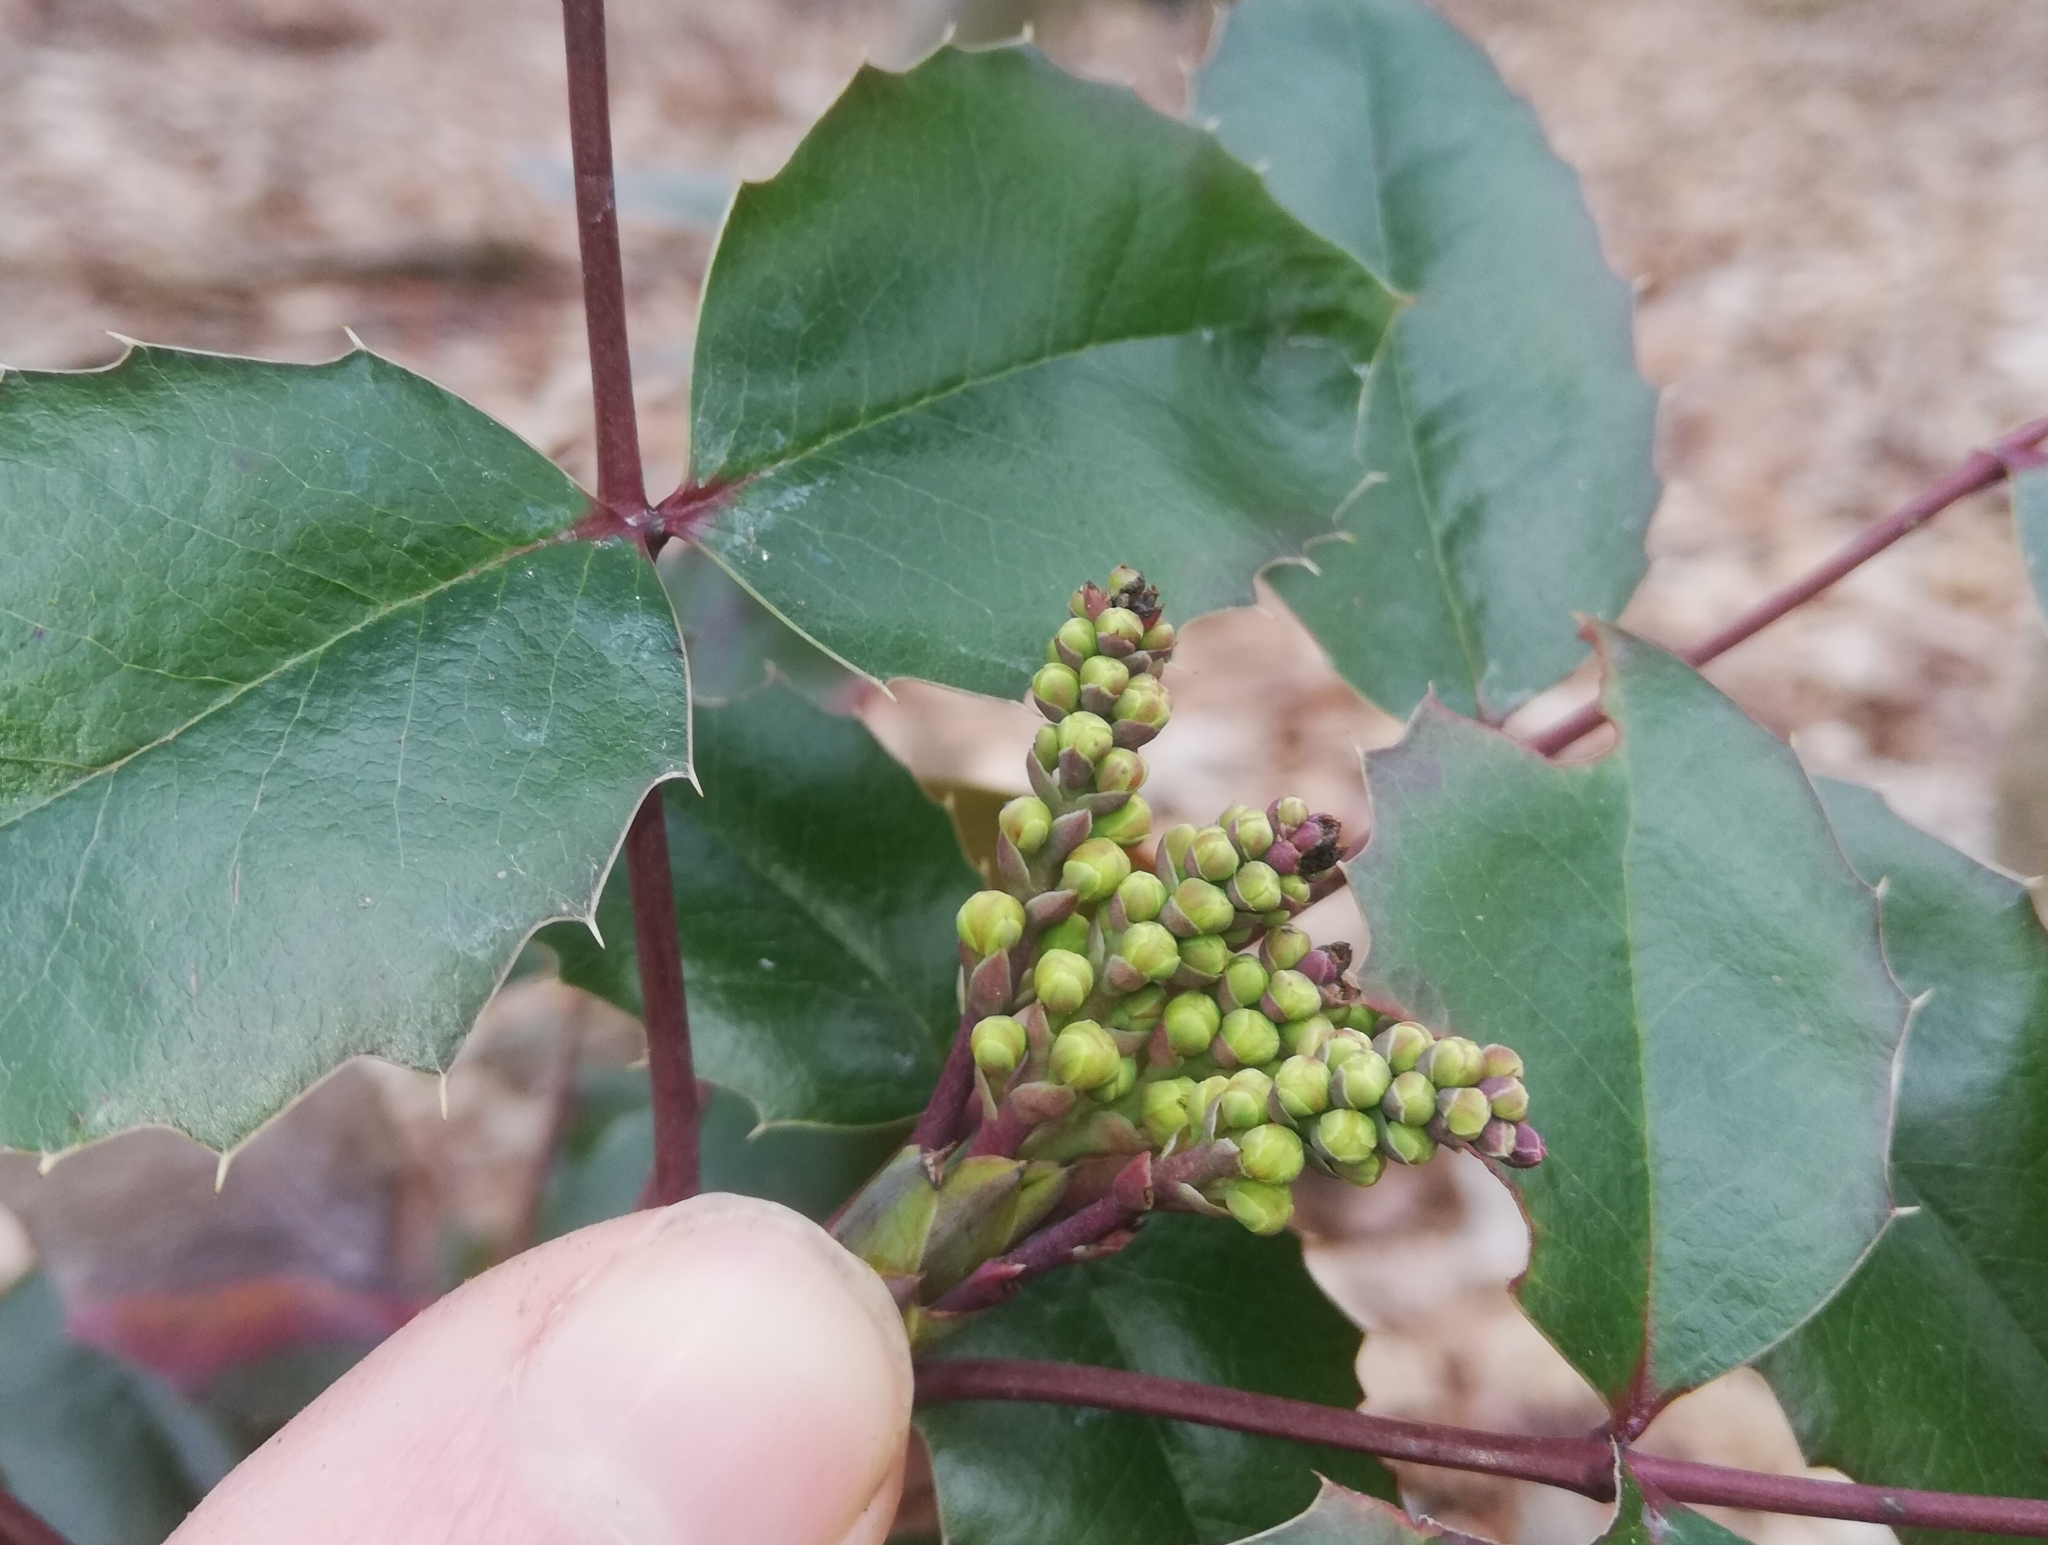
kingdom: Plantae
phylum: Tracheophyta
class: Magnoliopsida
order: Ranunculales
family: Berberidaceae
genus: Mahonia
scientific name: Mahonia aquifolium
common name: Oregon-grape
